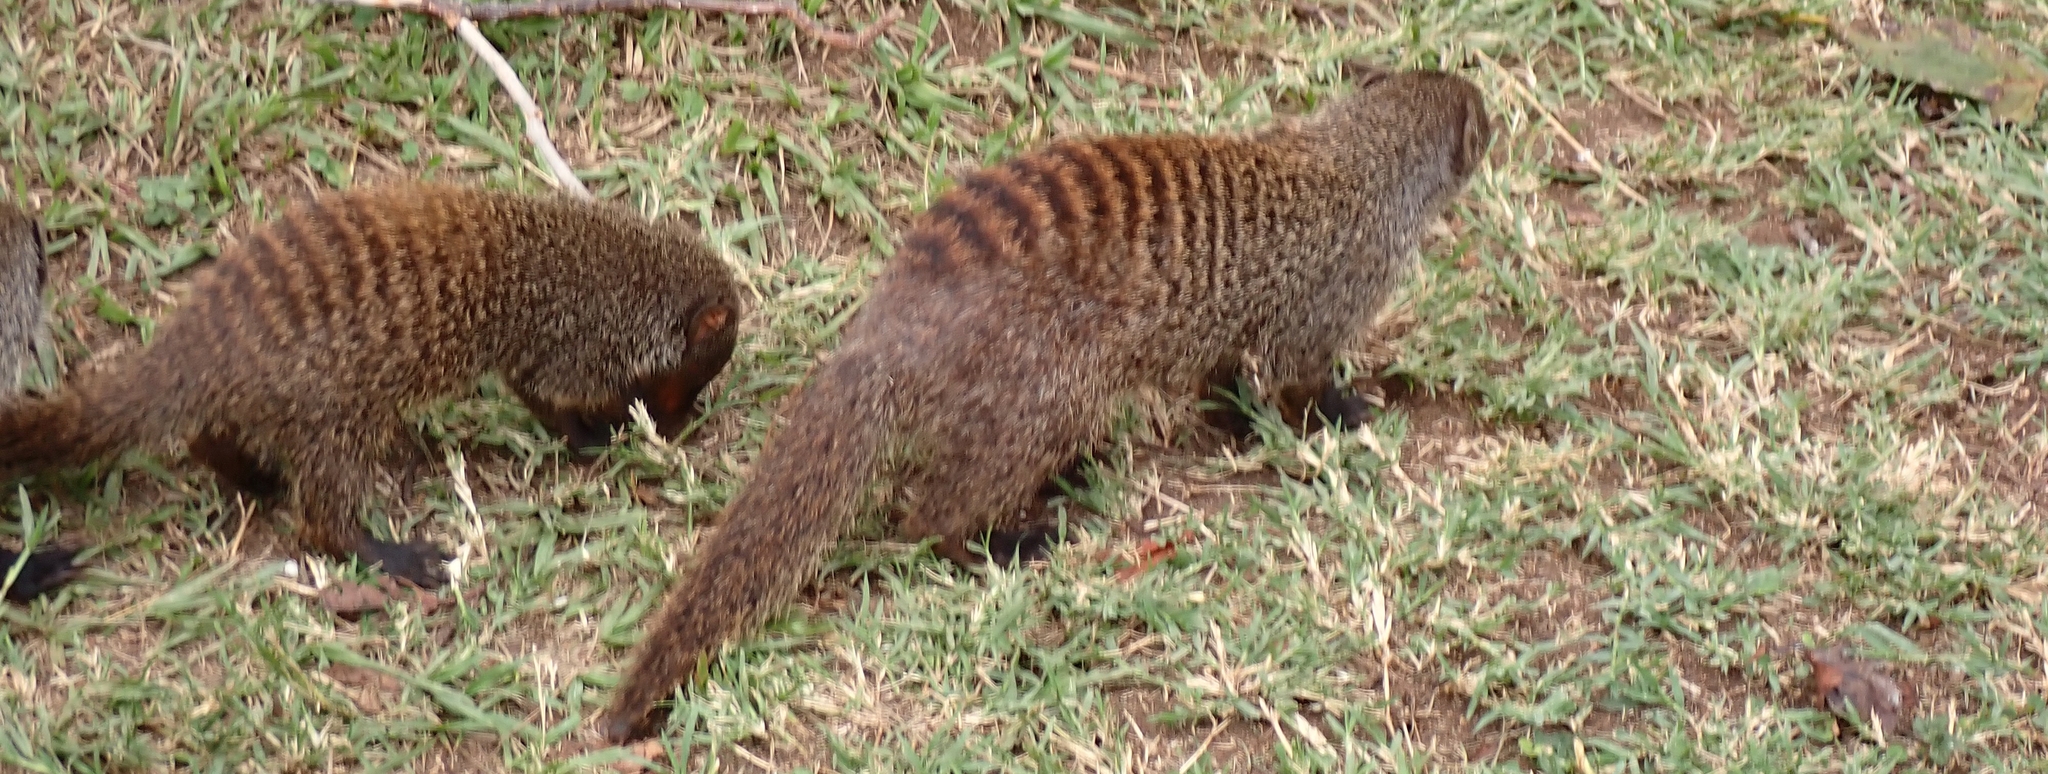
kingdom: Animalia
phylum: Chordata
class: Mammalia
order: Carnivora
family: Herpestidae
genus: Mungos
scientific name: Mungos mungo
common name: Banded mongoose
